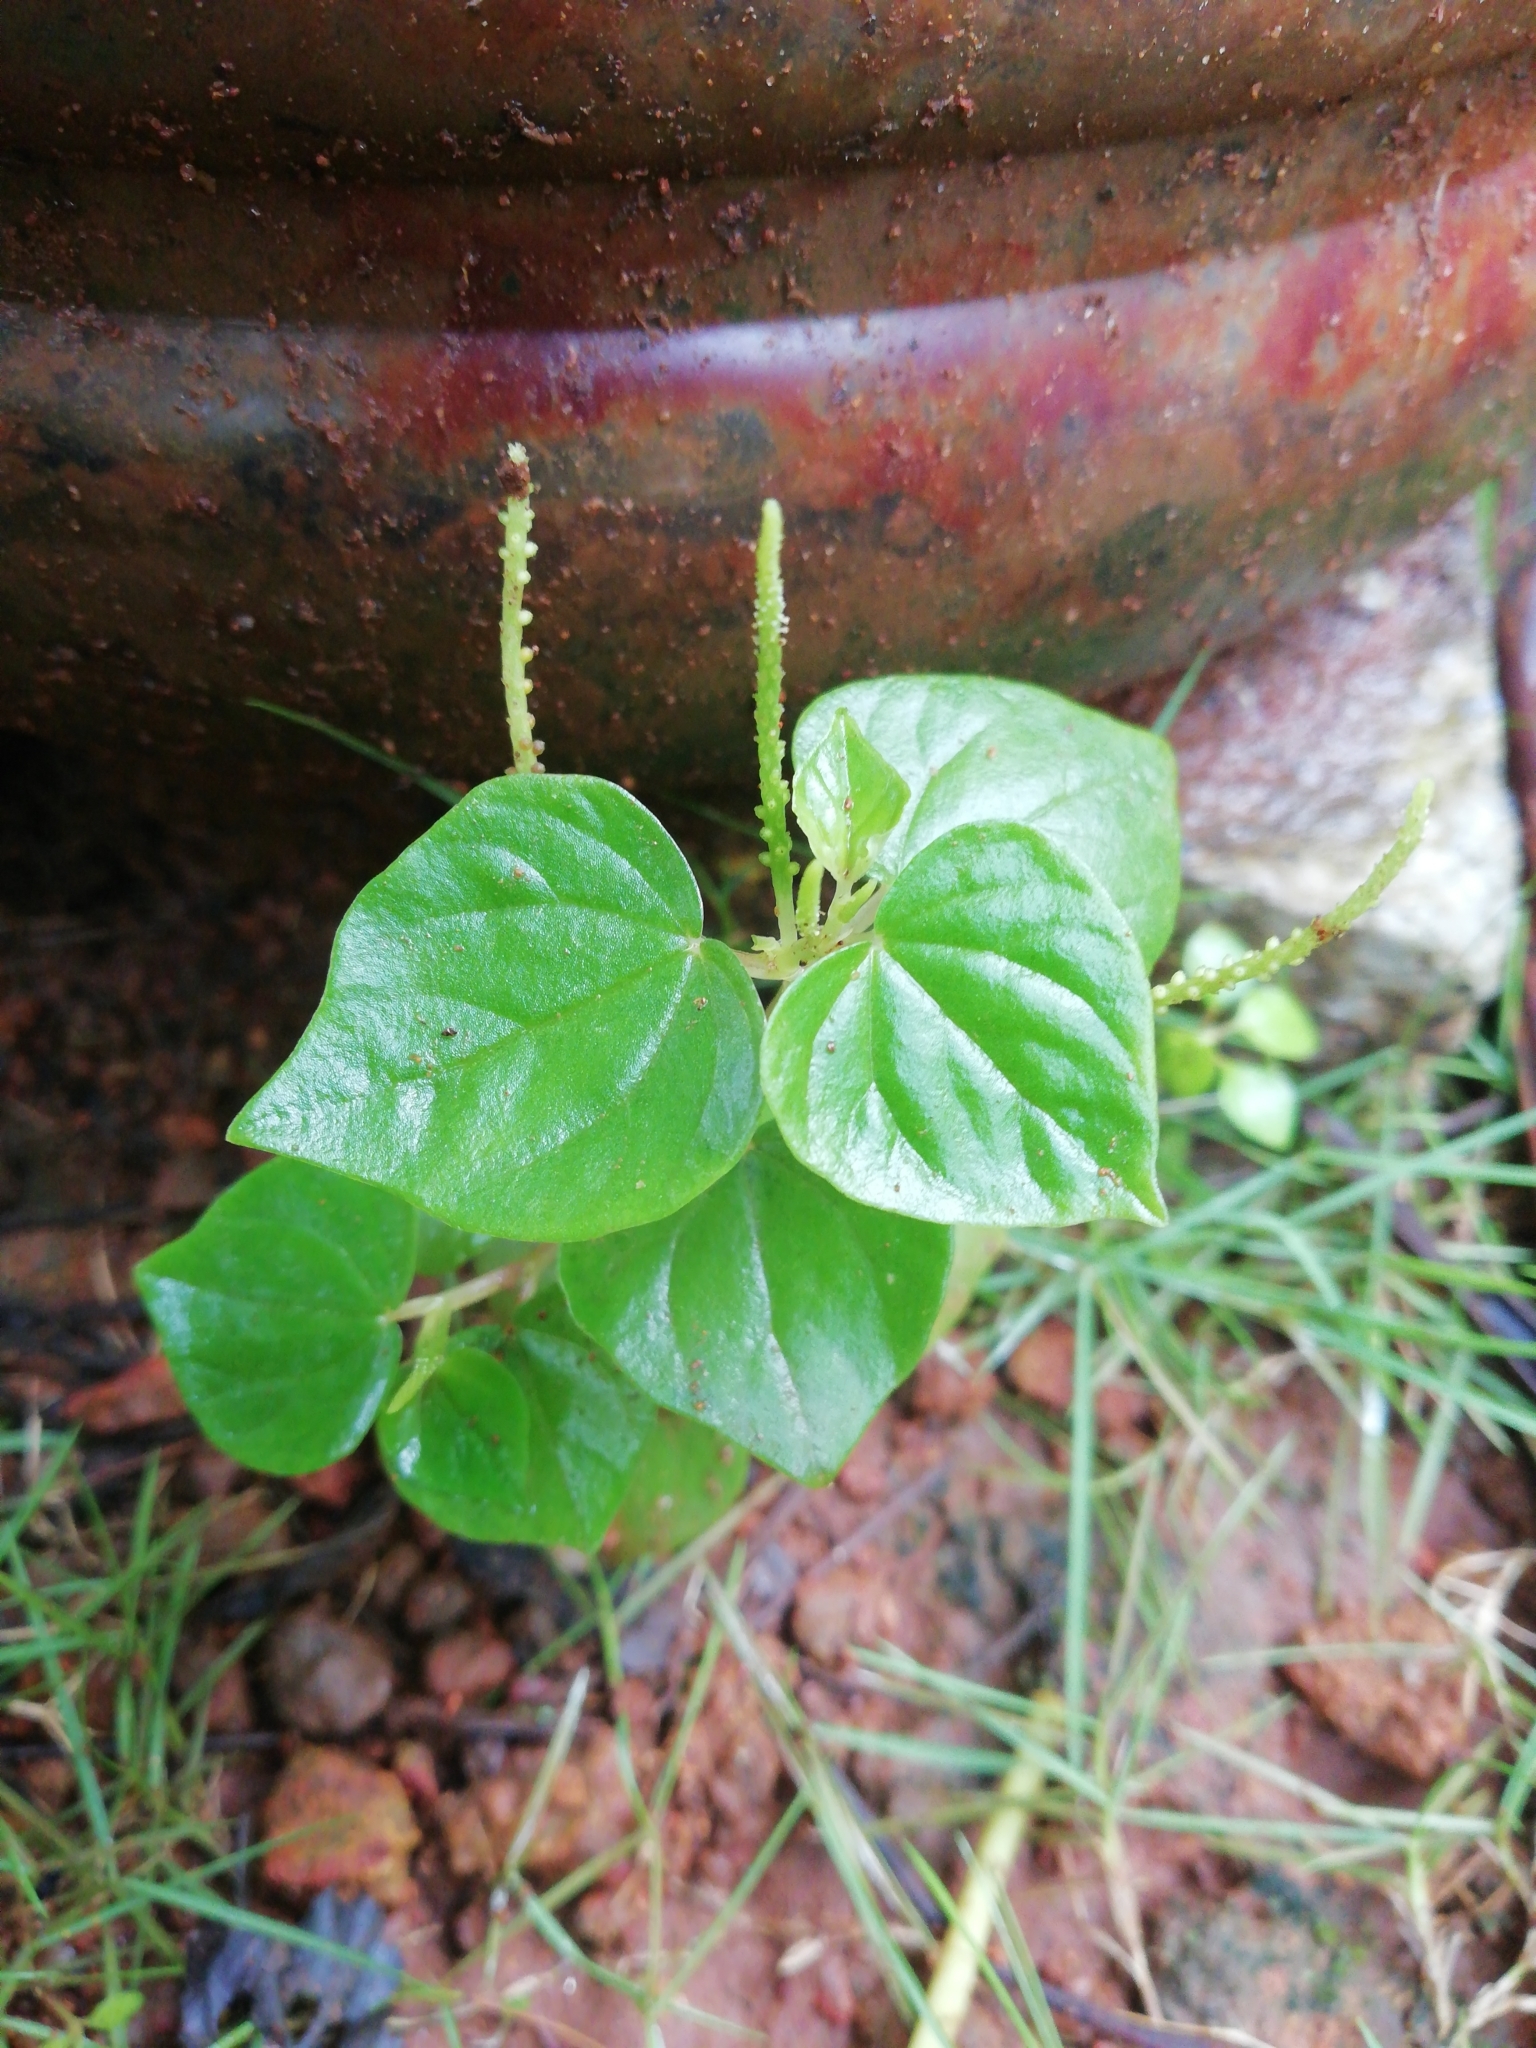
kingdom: Plantae
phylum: Tracheophyta
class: Magnoliopsida
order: Piperales
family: Piperaceae
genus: Peperomia
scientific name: Peperomia pellucida
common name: Man to man
